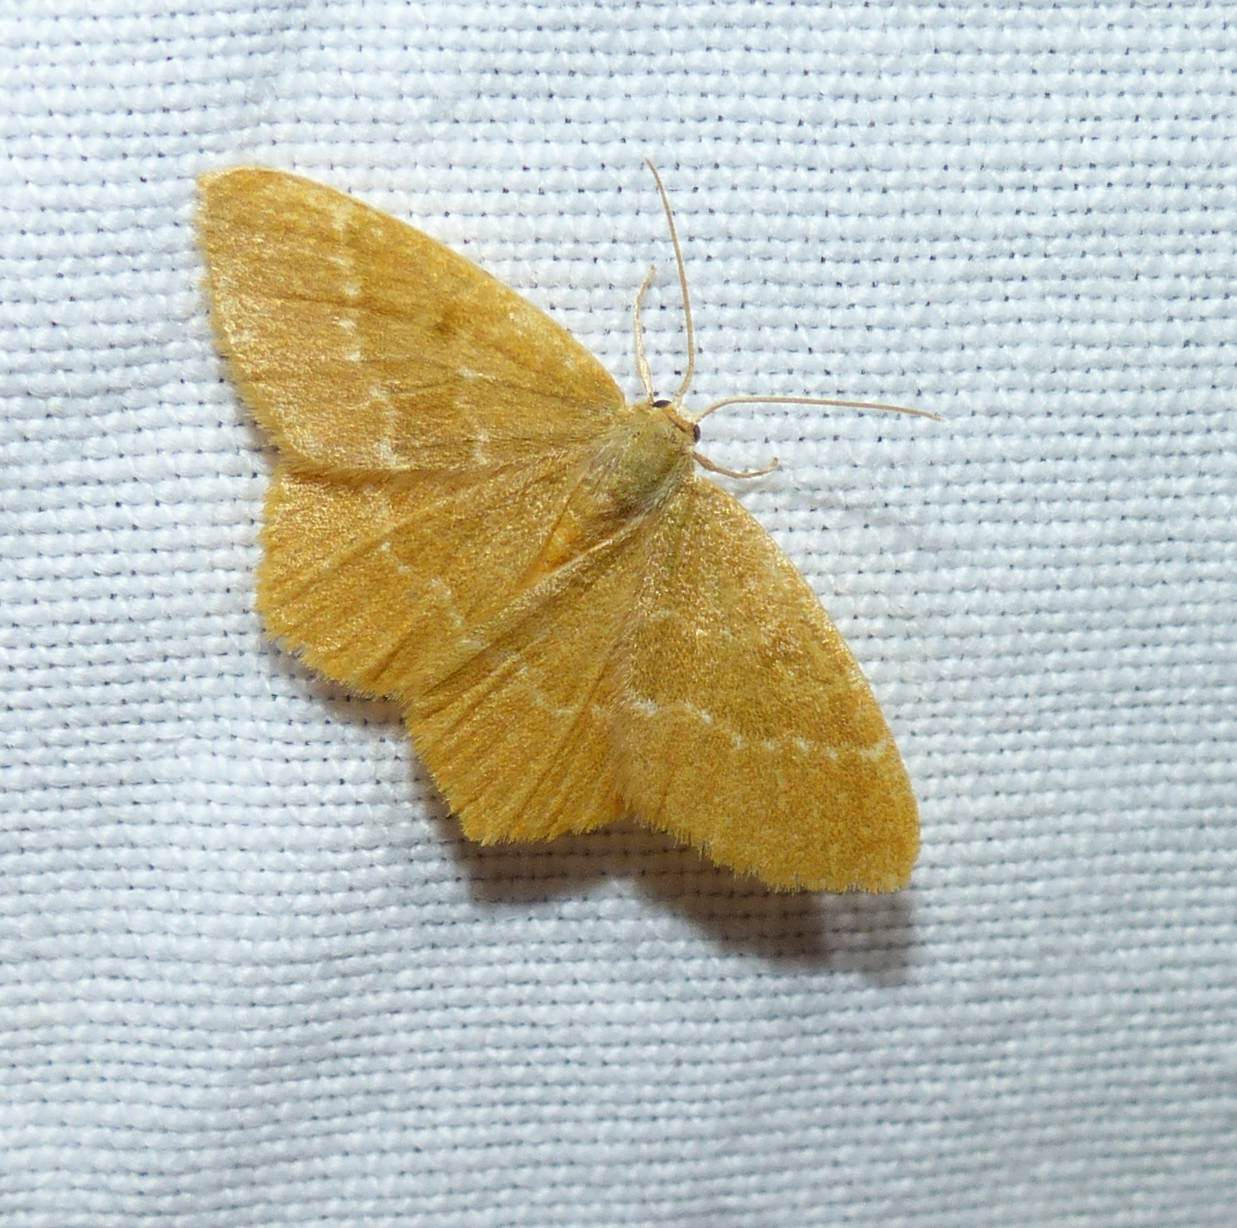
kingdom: Animalia
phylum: Arthropoda
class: Insecta
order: Lepidoptera
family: Geometridae
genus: Thalera
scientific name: Thalera pistasciaria
